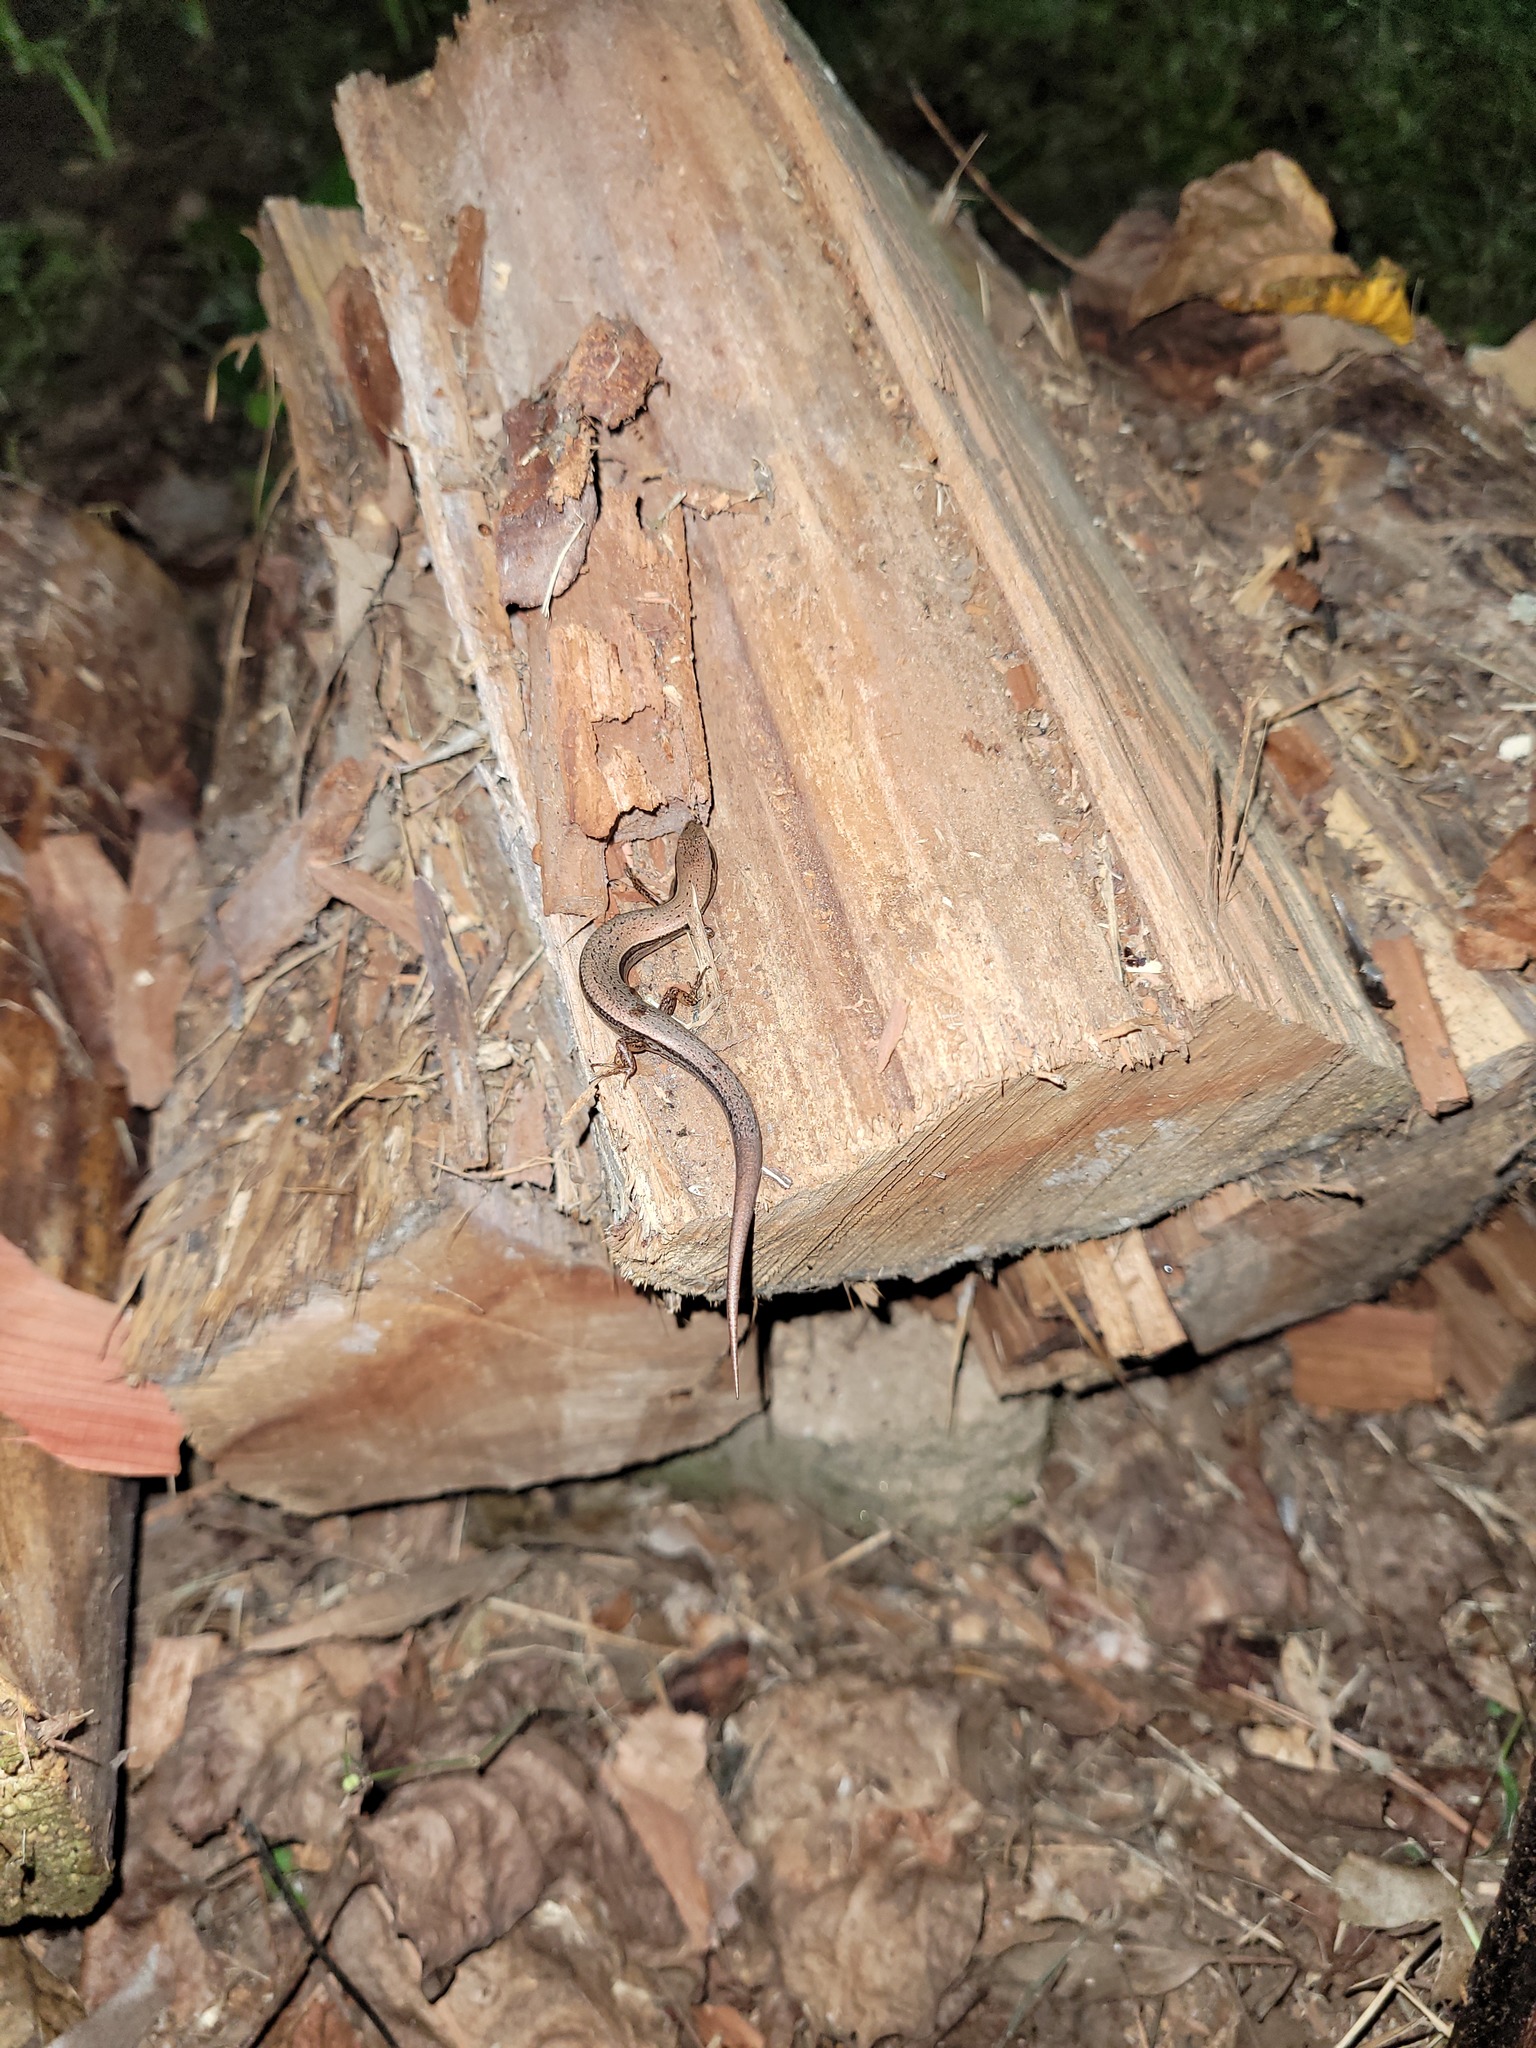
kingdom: Animalia
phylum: Chordata
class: Squamata
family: Scincidae
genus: Scincella
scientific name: Scincella lateralis
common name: Ground skink
